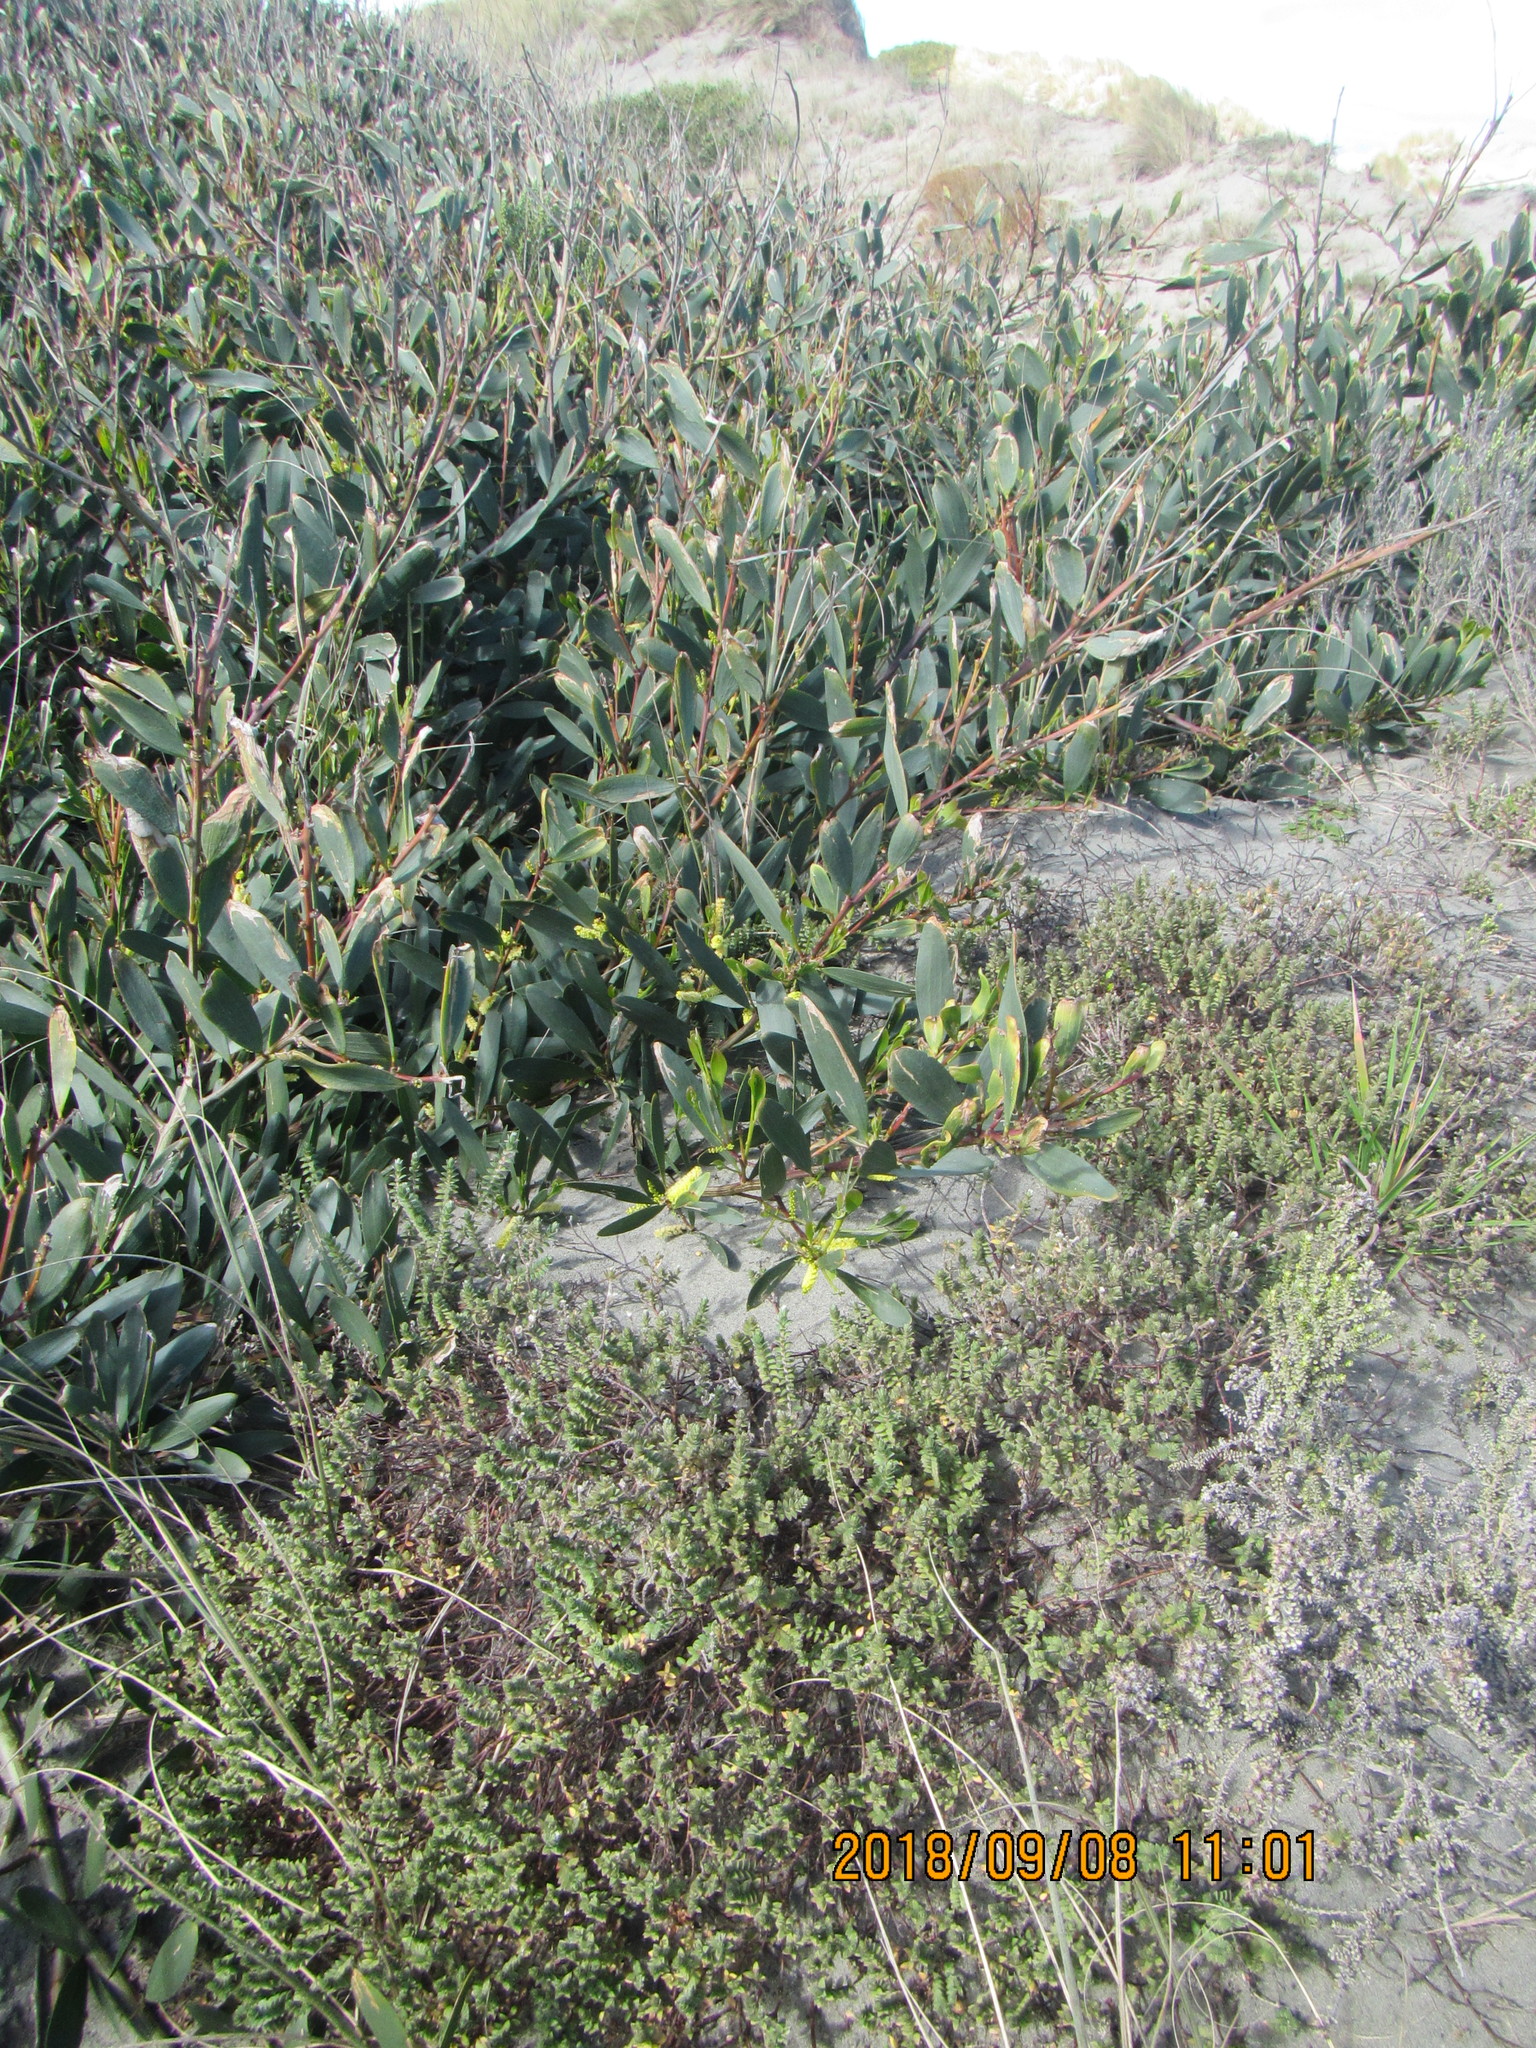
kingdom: Plantae
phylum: Tracheophyta
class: Magnoliopsida
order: Malvales
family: Thymelaeaceae
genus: Pimelea
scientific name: Pimelea villosa
